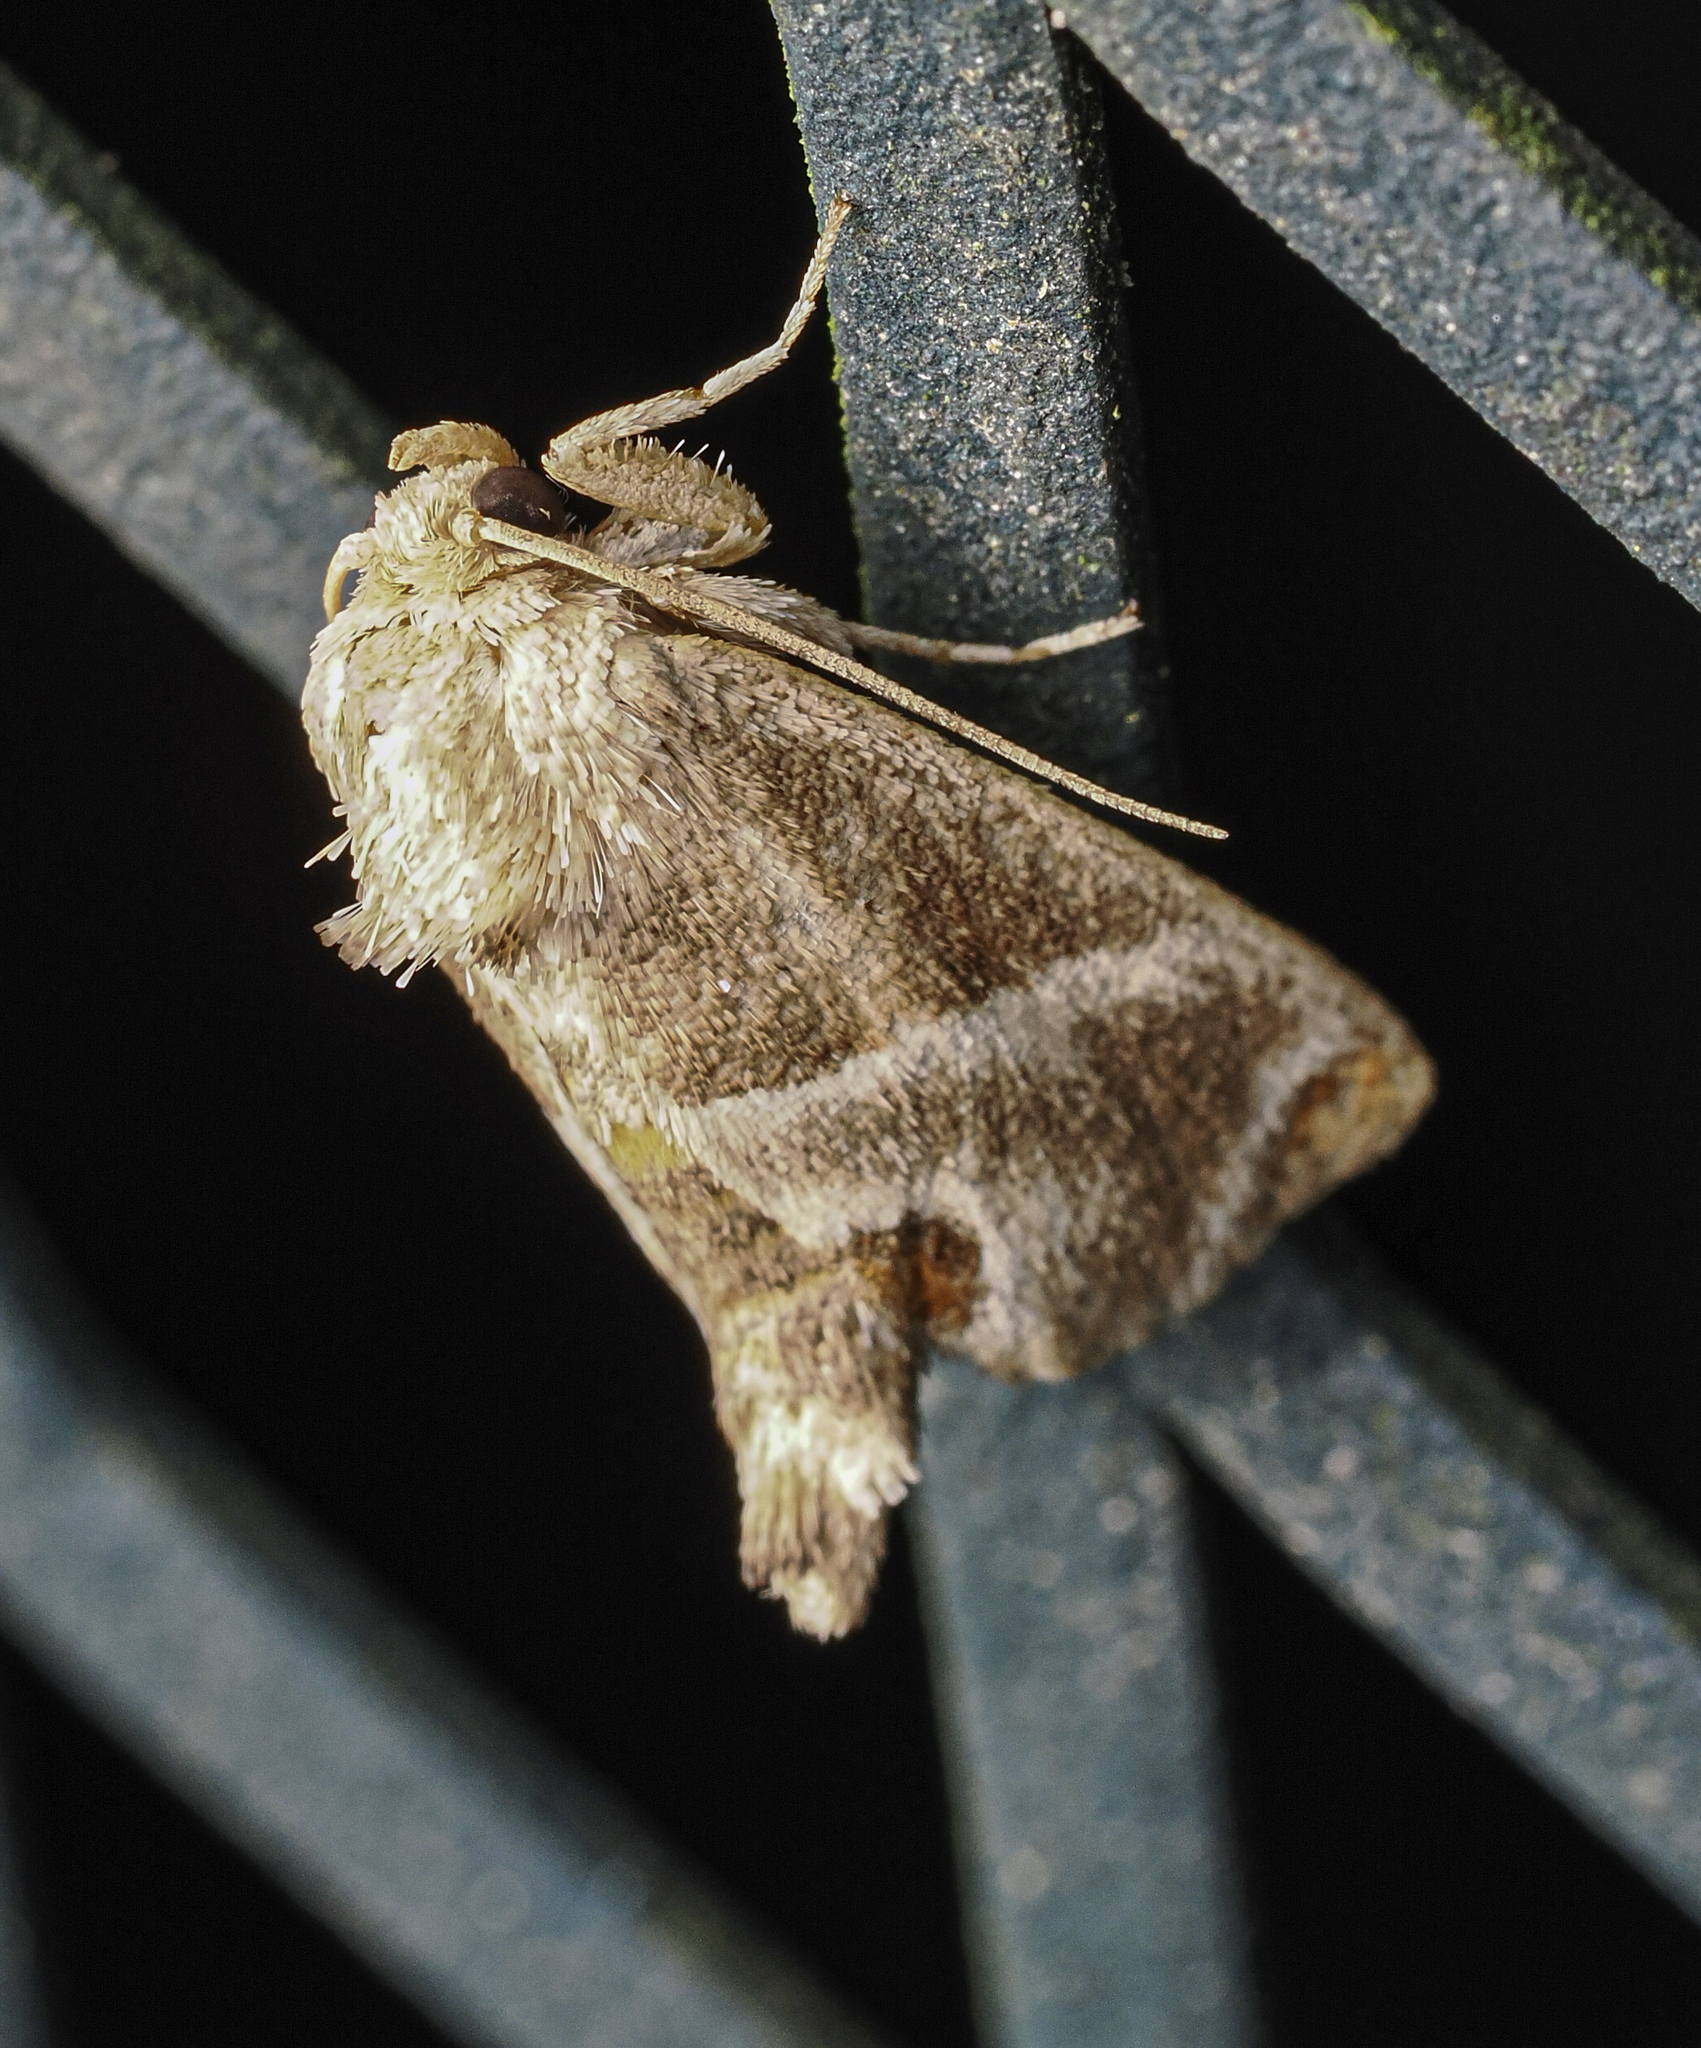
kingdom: Animalia
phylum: Arthropoda
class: Insecta
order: Lepidoptera
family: Limacodidae
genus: Apoda
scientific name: Apoda biguttata
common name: Shagreened slug moth
